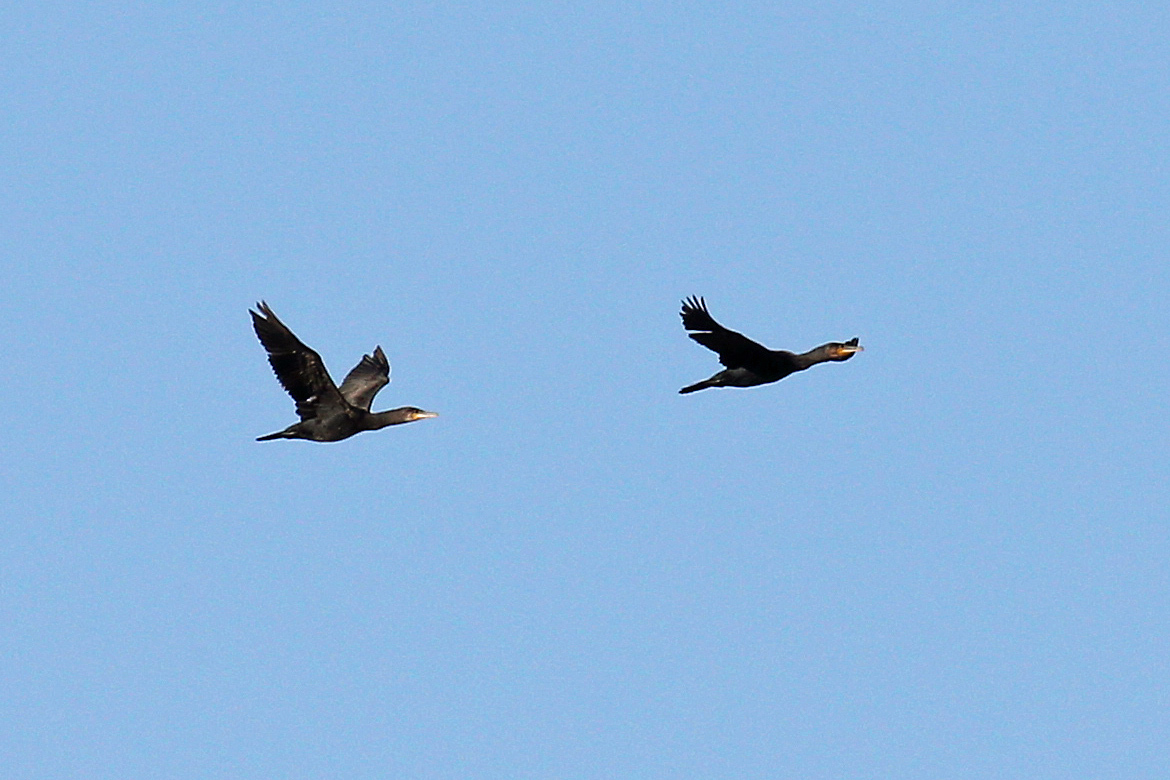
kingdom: Animalia
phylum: Chordata
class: Aves
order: Suliformes
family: Phalacrocoracidae
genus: Phalacrocorax
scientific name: Phalacrocorax carbo
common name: Great cormorant
